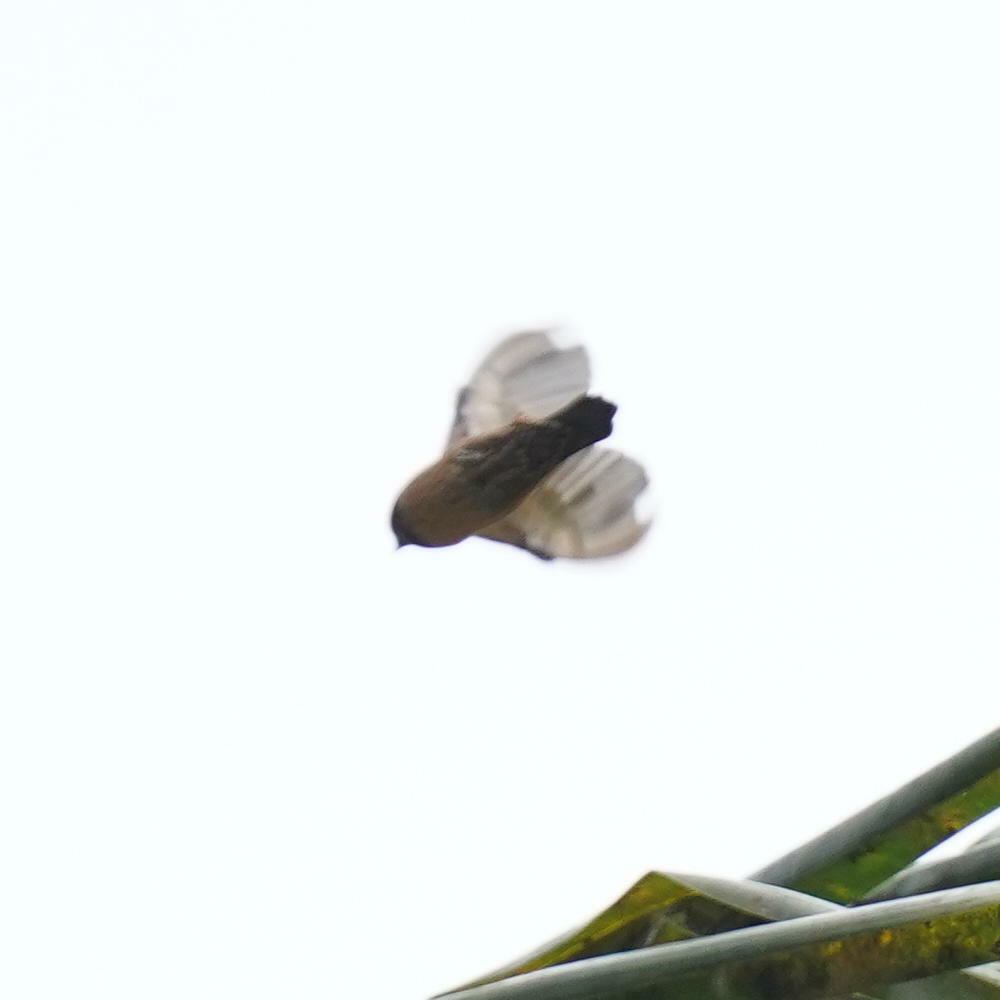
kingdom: Animalia
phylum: Chordata
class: Aves
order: Passeriformes
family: Estrildidae
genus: Lonchura
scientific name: Lonchura kelaarti
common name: Black-throated munia
